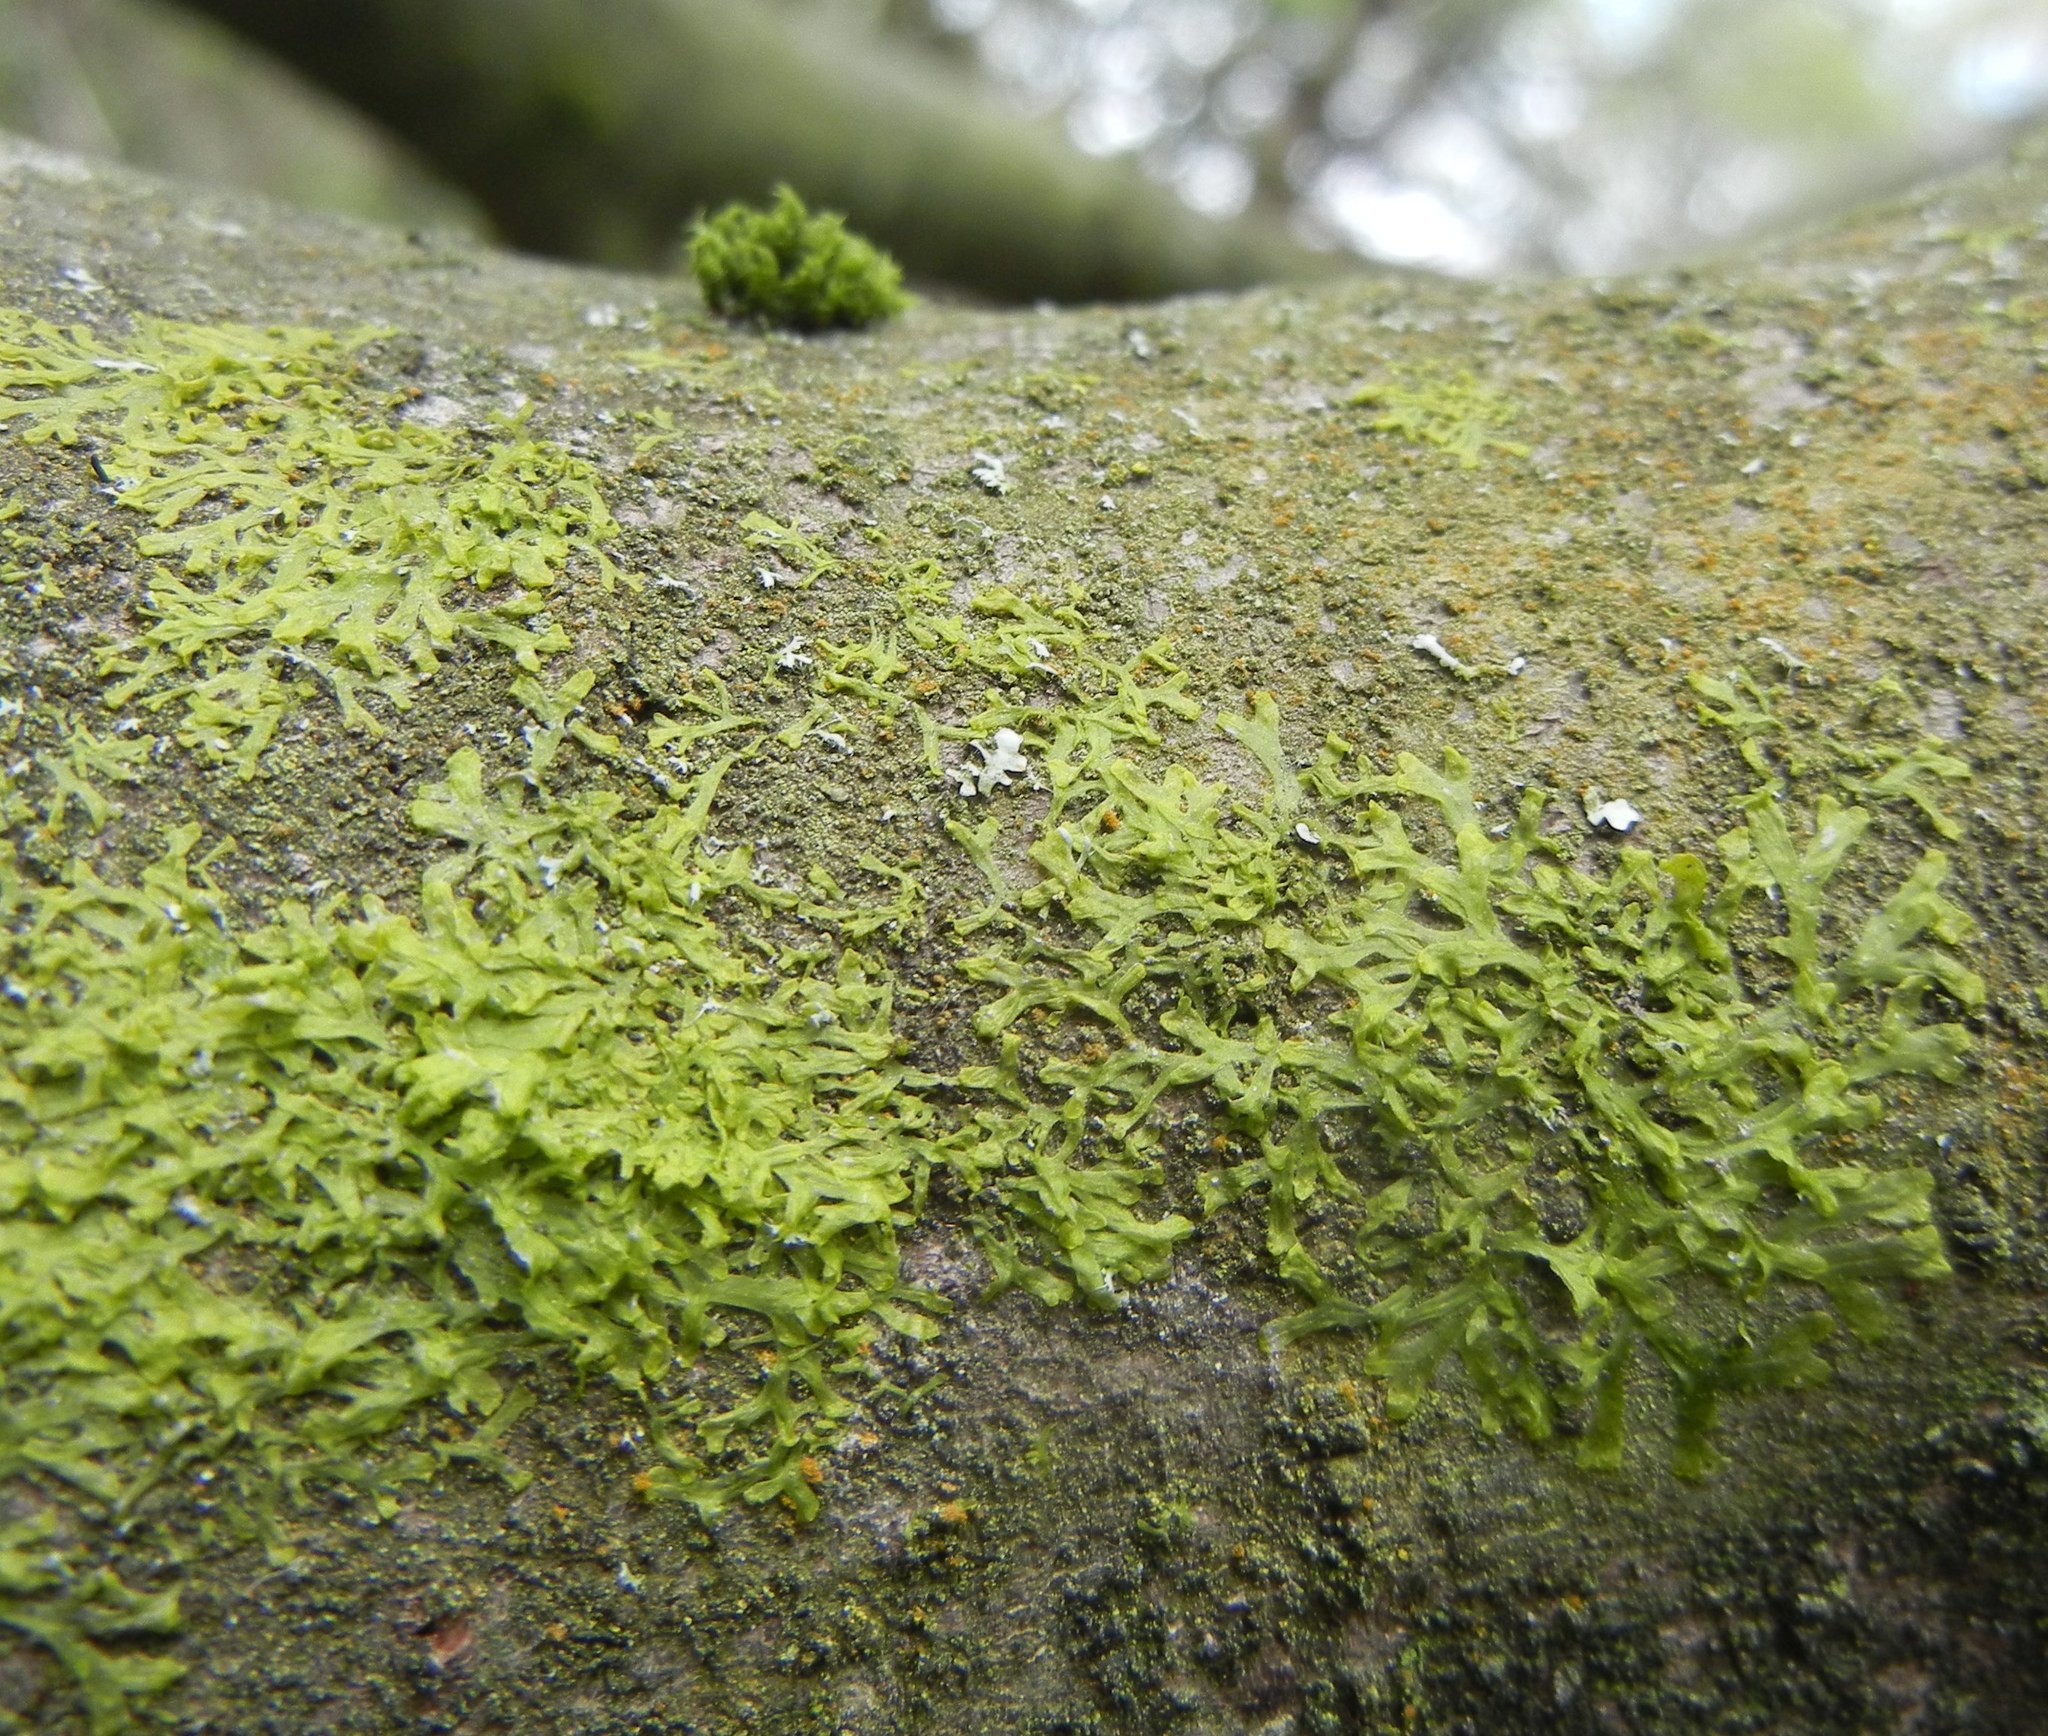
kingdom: Plantae
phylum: Marchantiophyta
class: Jungermanniopsida
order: Metzgeriales
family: Metzgeriaceae
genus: Metzgeria
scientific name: Metzgeria furcata
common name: Forked veilwort
